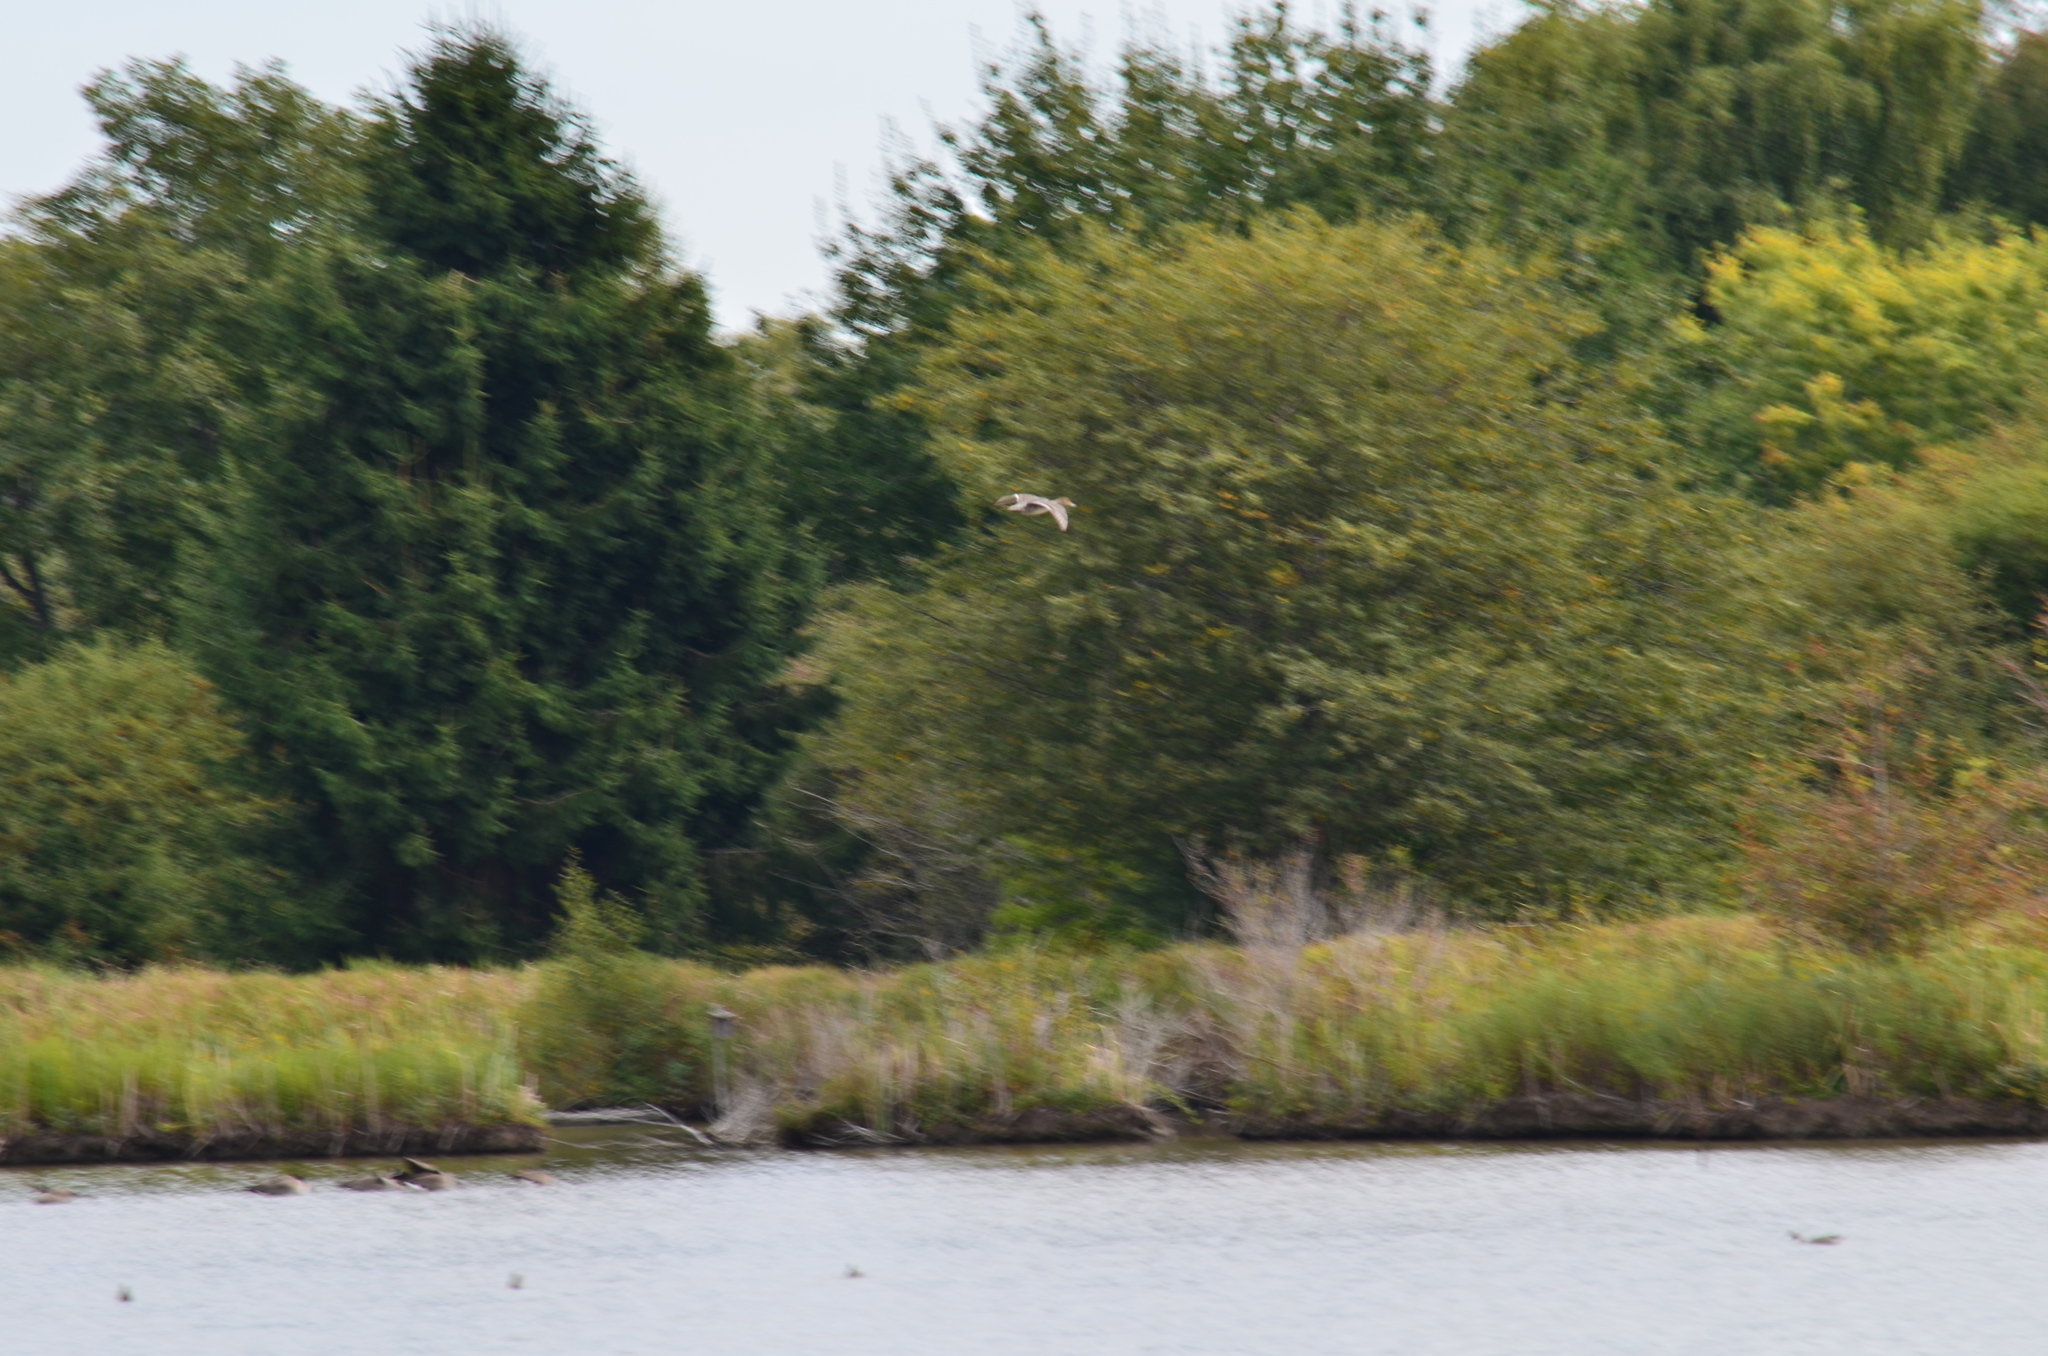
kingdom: Animalia
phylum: Chordata
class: Aves
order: Anseriformes
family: Anatidae
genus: Anas
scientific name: Anas acuta
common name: Northern pintail
